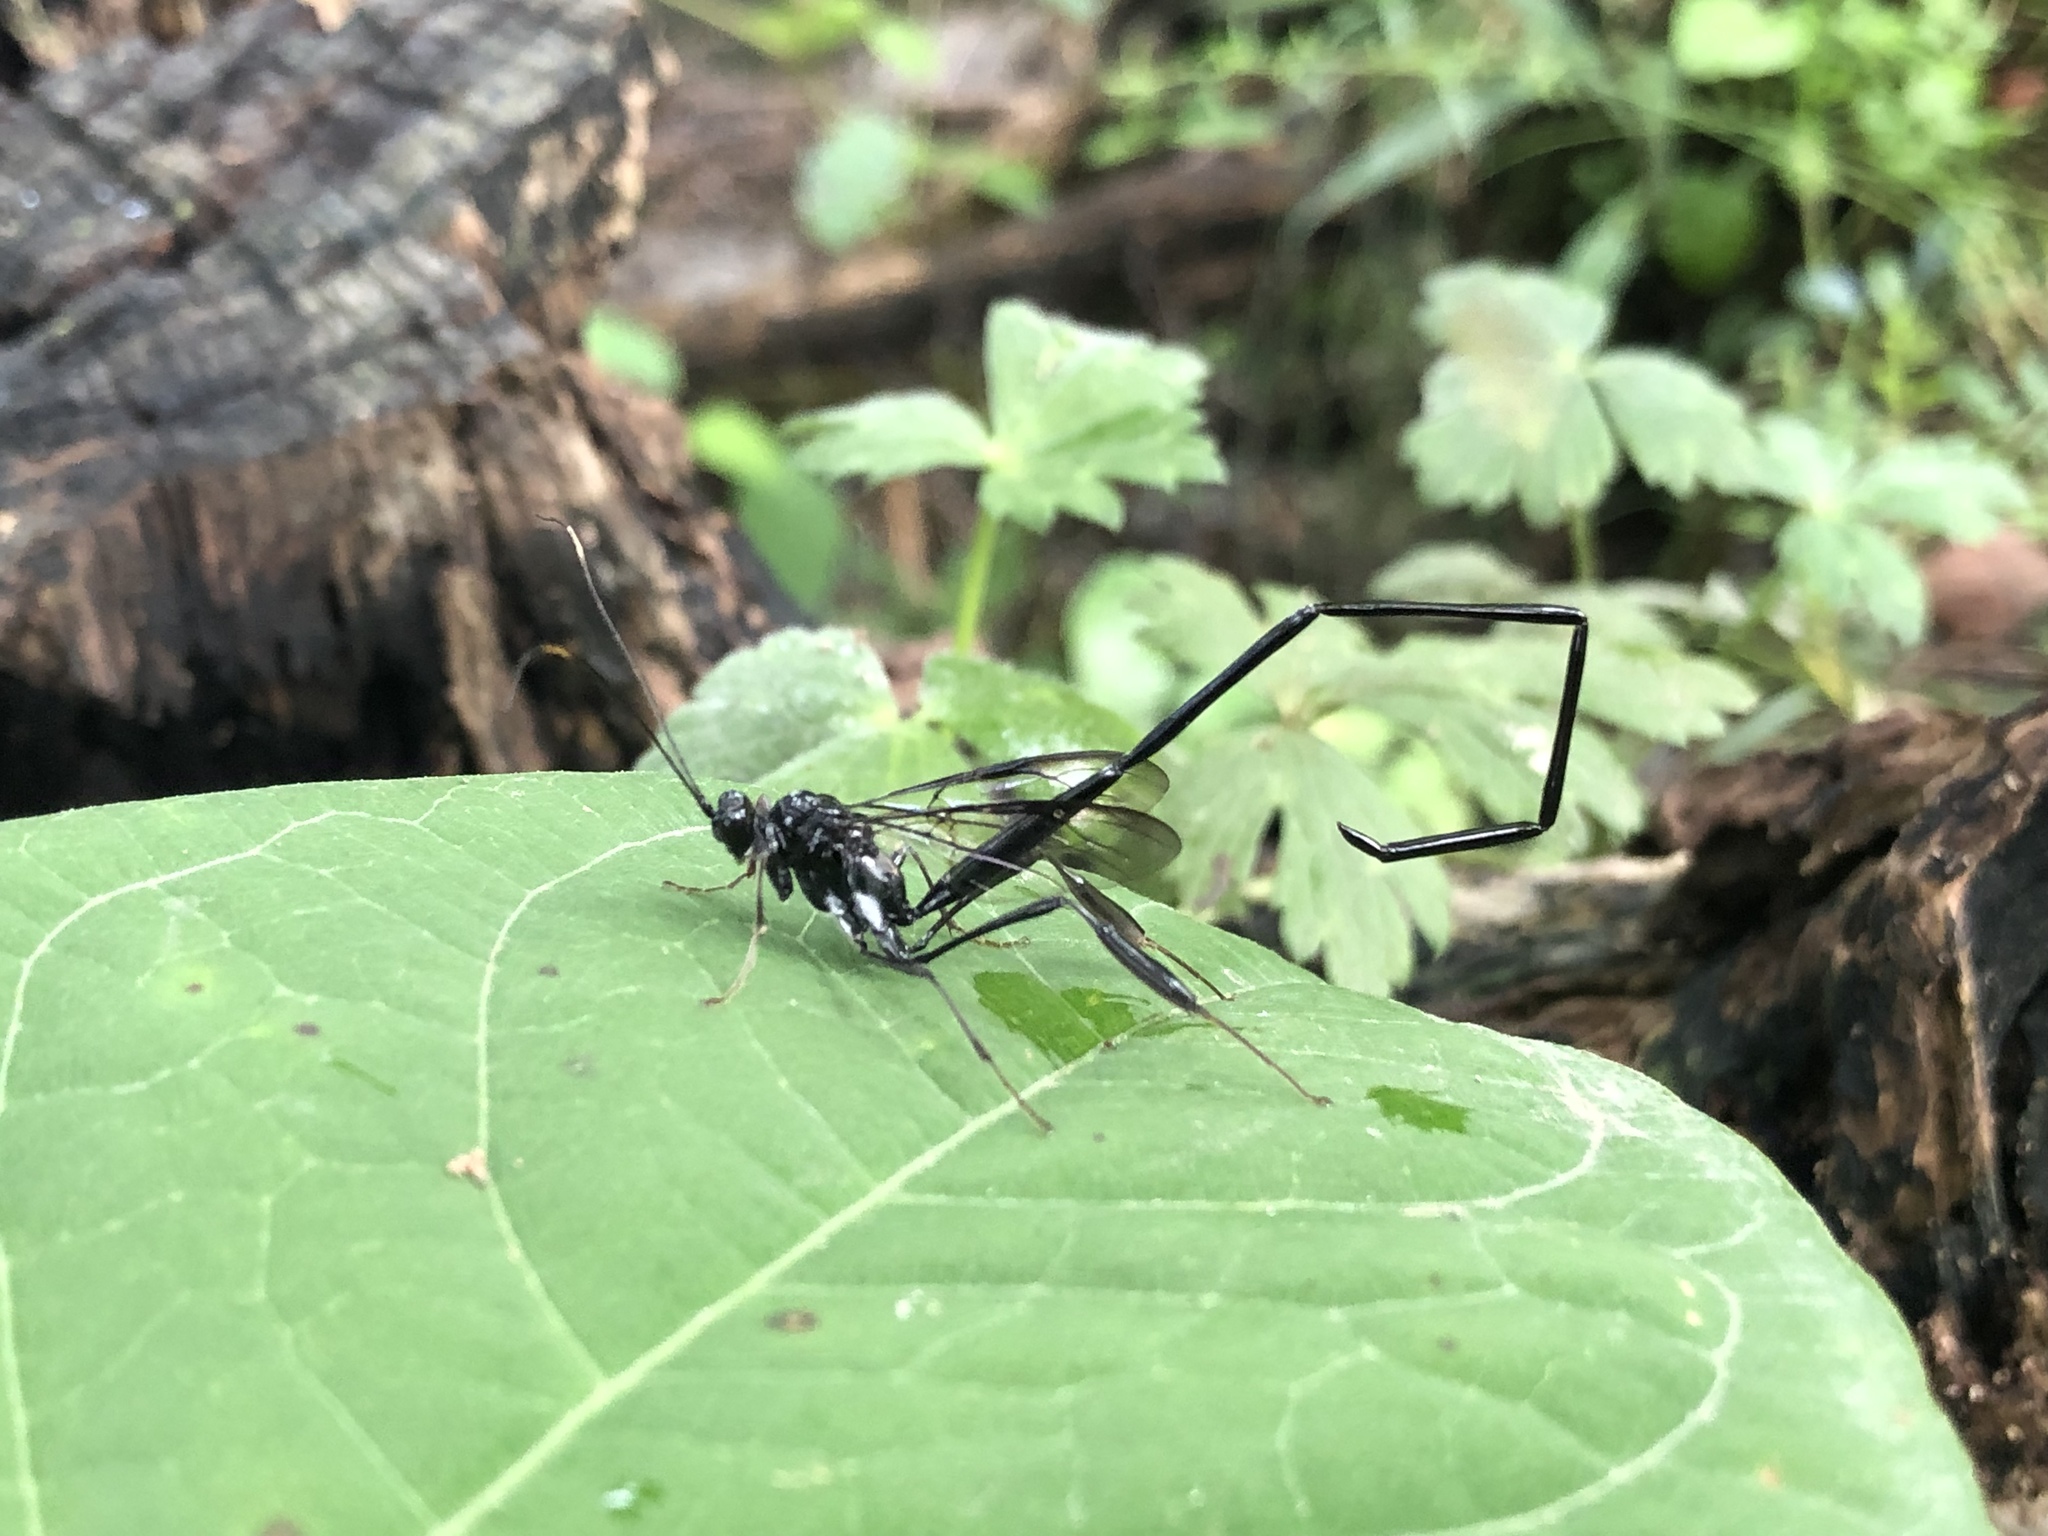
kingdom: Animalia
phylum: Arthropoda
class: Insecta
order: Hymenoptera
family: Pelecinidae
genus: Pelecinus
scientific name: Pelecinus polyturator
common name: American pelecinid wasp
